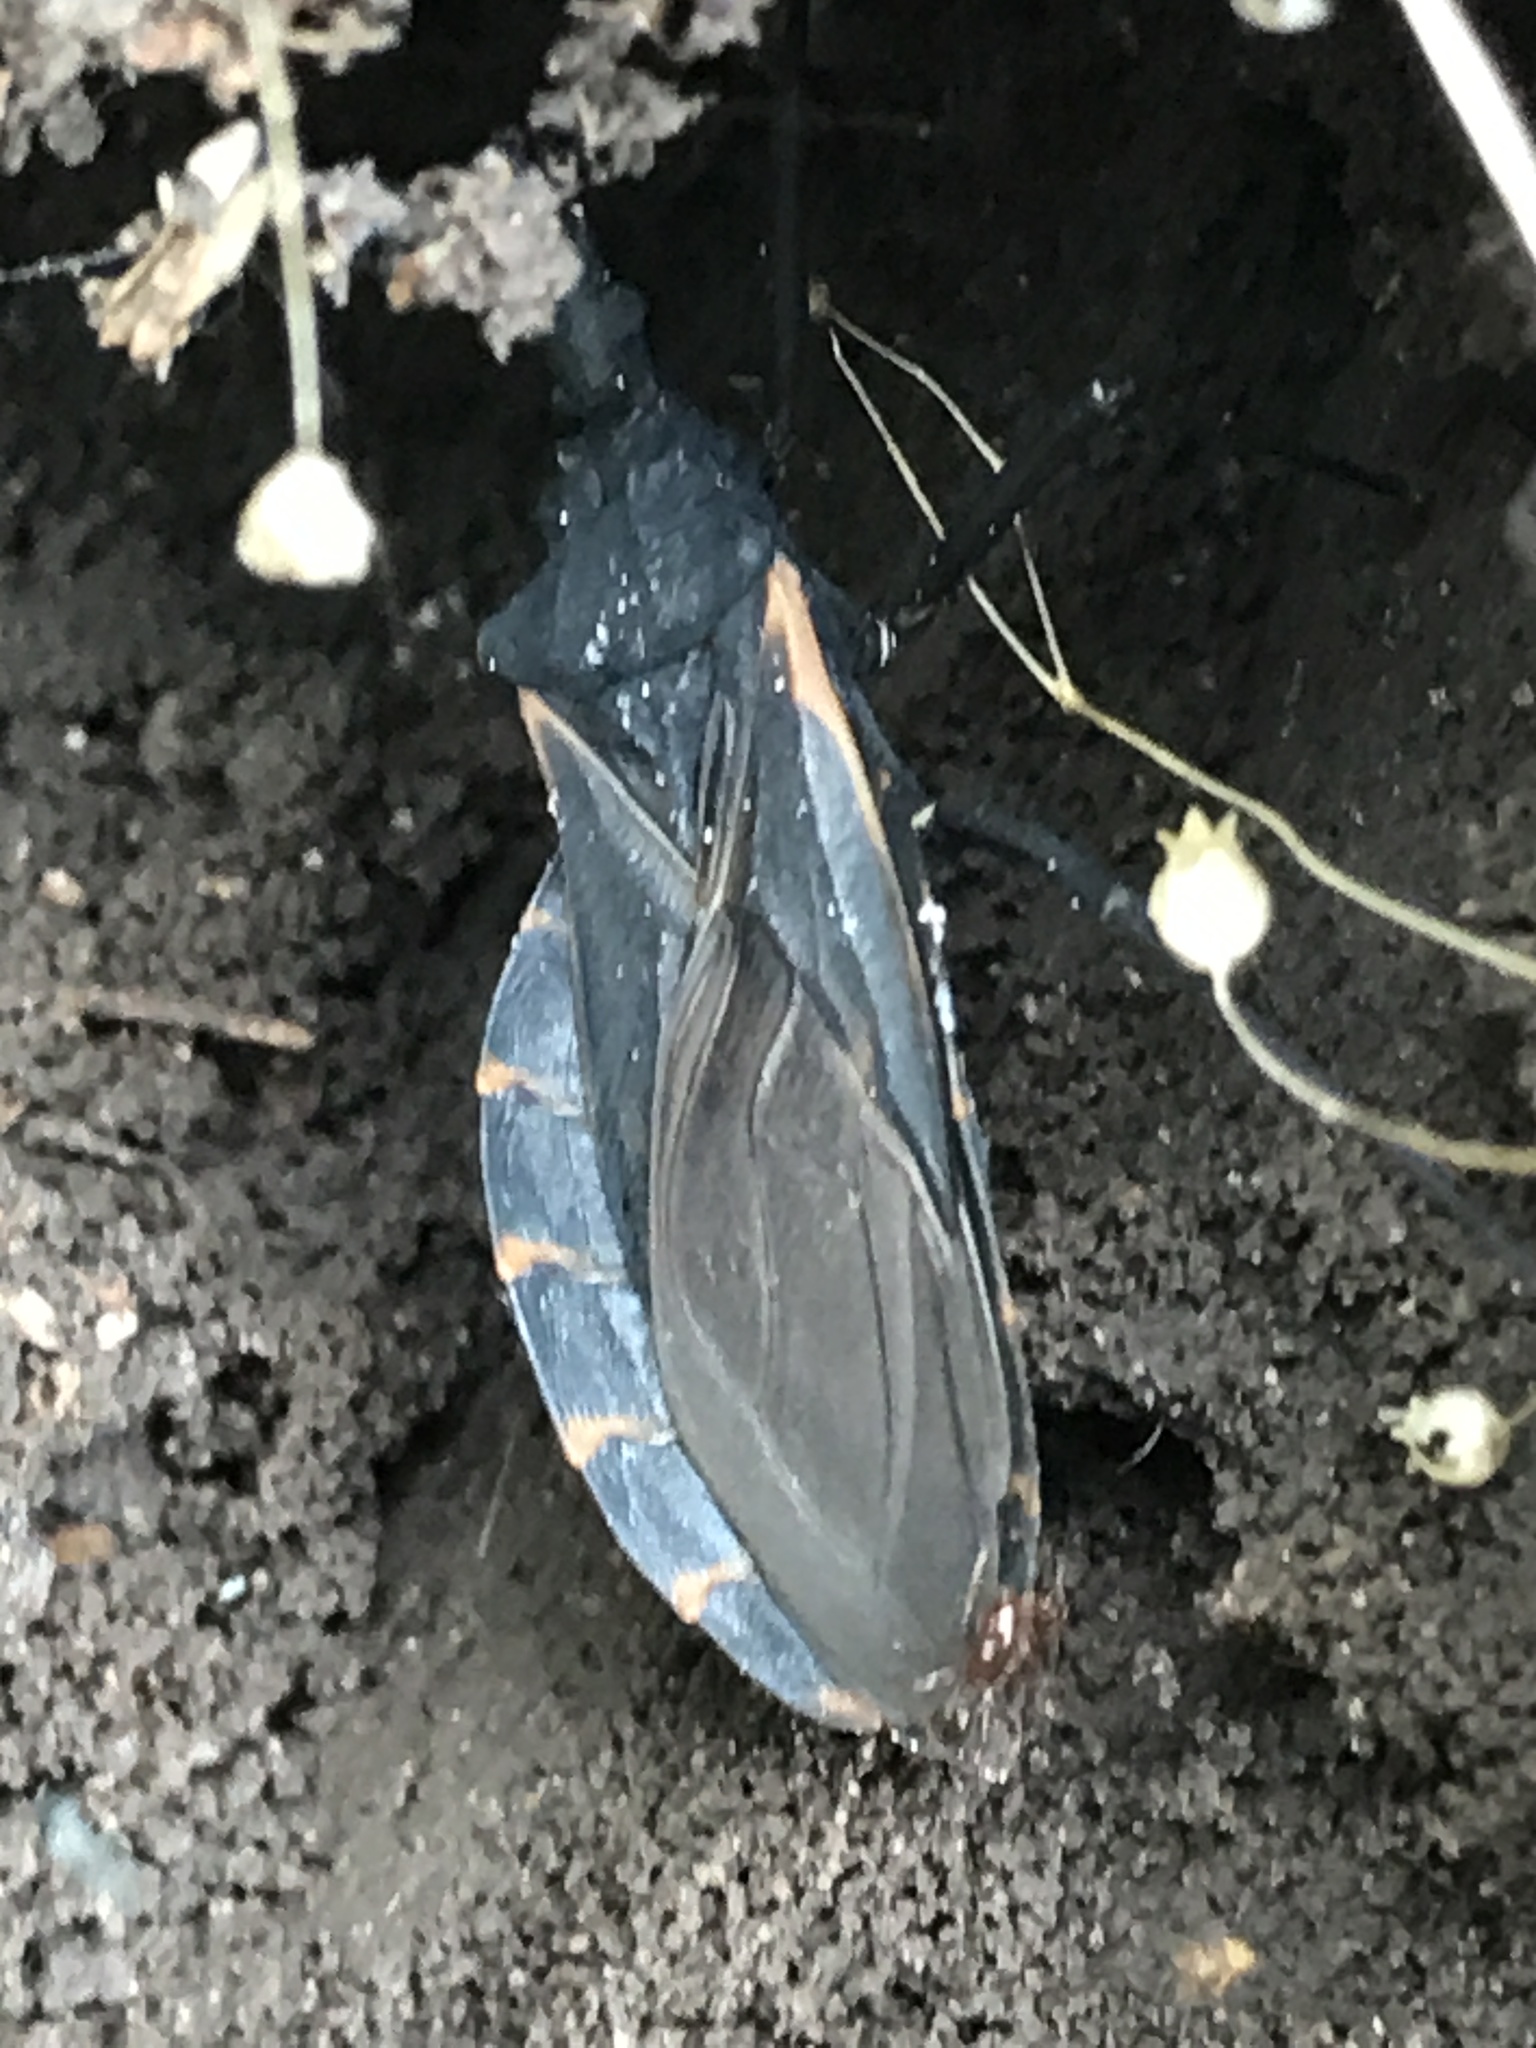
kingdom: Animalia
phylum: Arthropoda
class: Insecta
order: Hemiptera
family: Reduviidae
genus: Triatoma
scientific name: Triatoma gerstaeckeri
